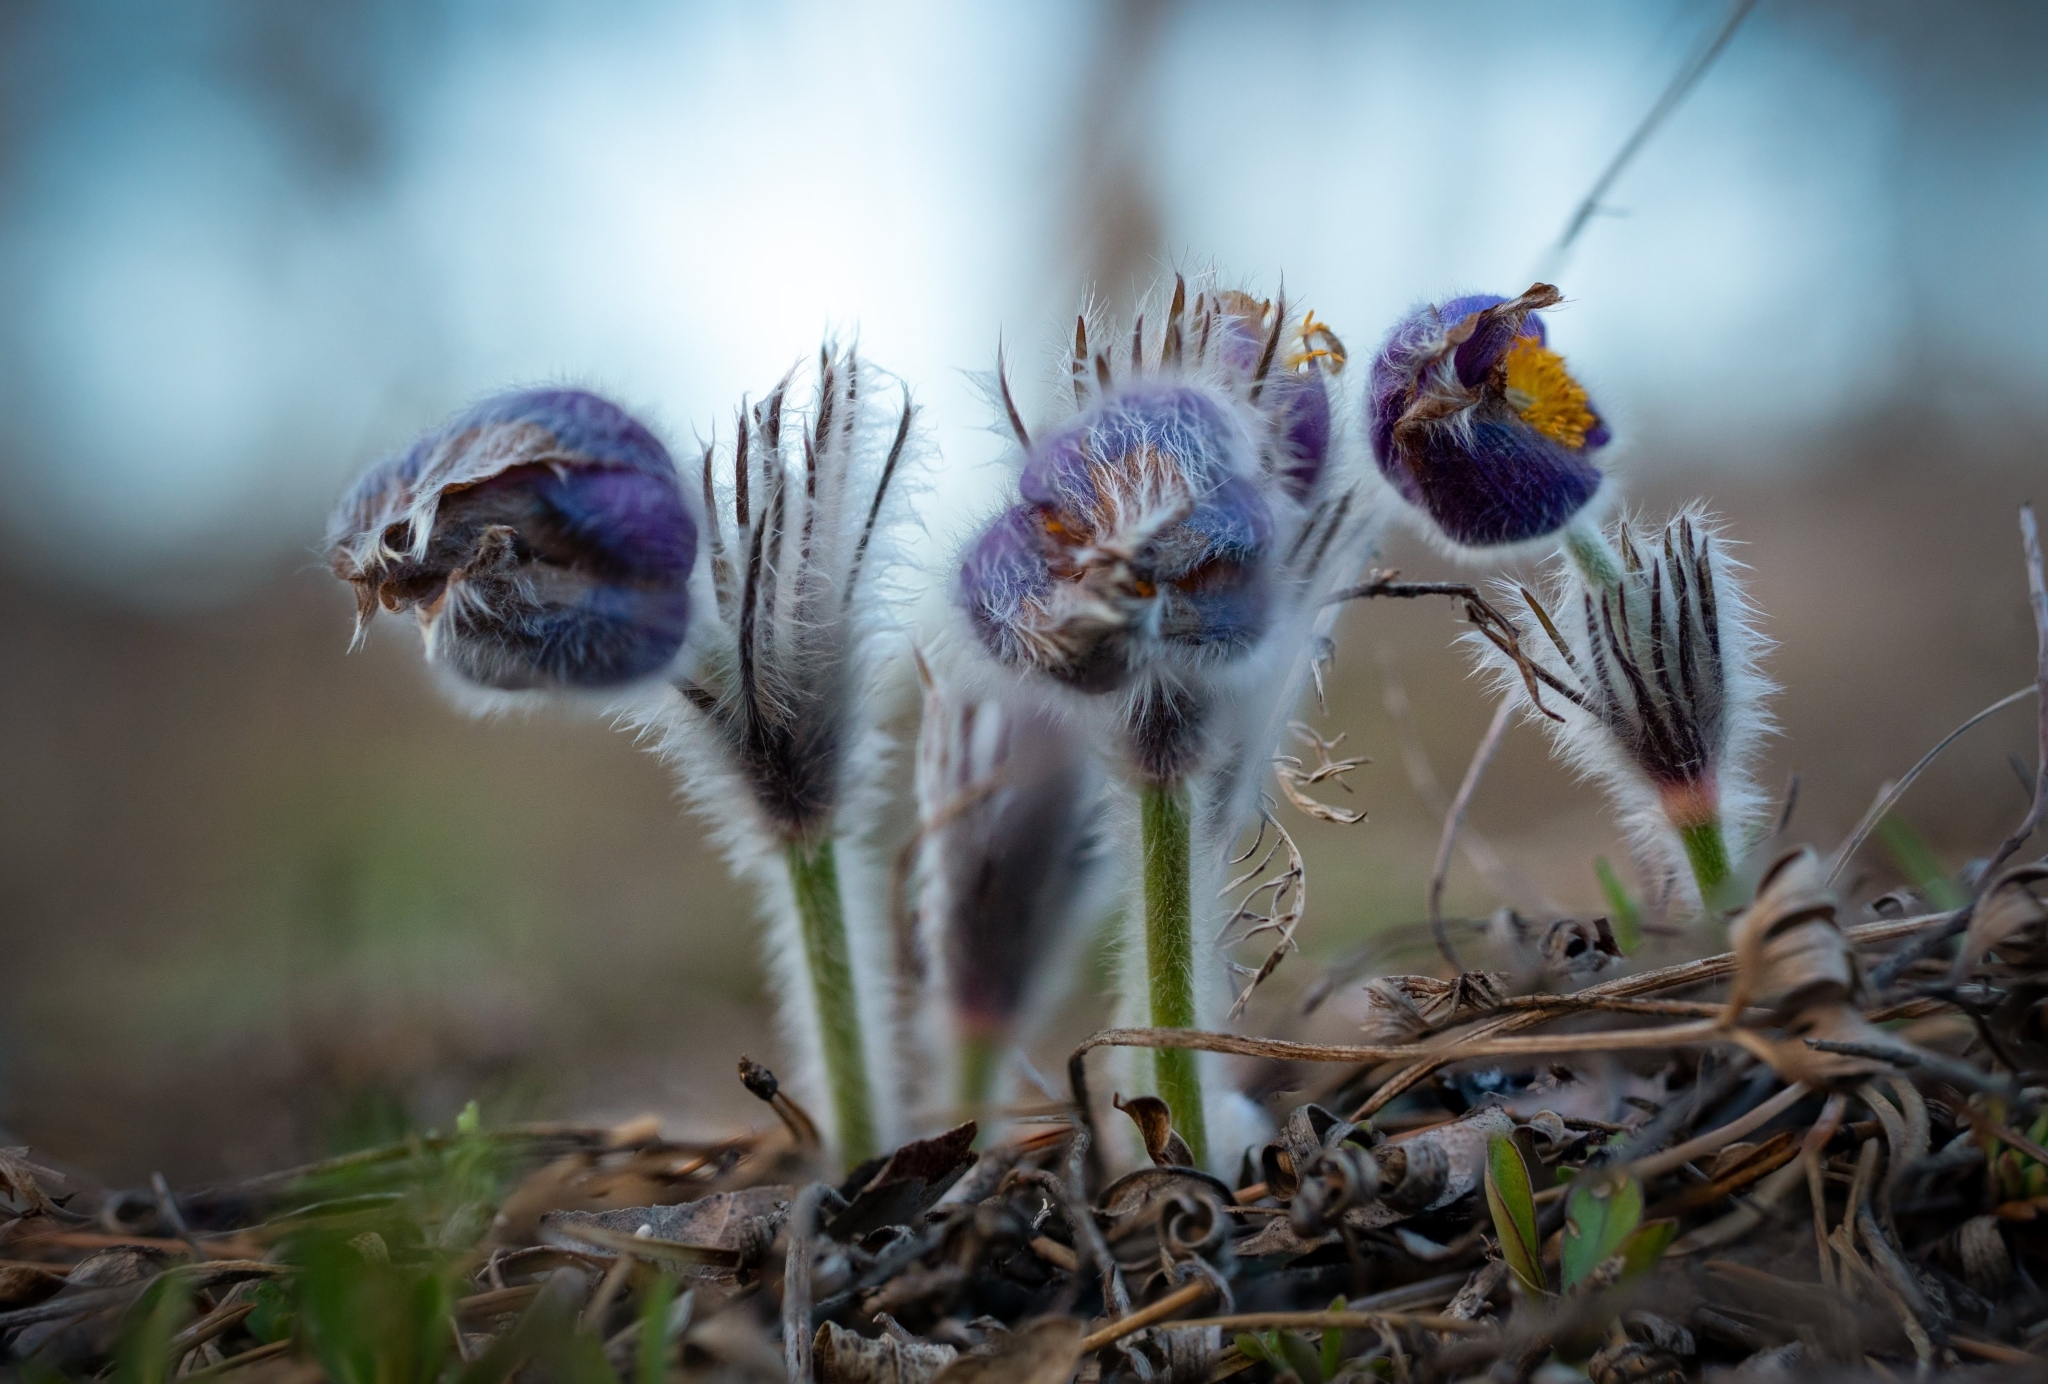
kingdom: Plantae
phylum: Tracheophyta
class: Magnoliopsida
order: Ranunculales
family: Ranunculaceae
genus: Pulsatilla
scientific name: Pulsatilla grandis
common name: Greater pasque flower
